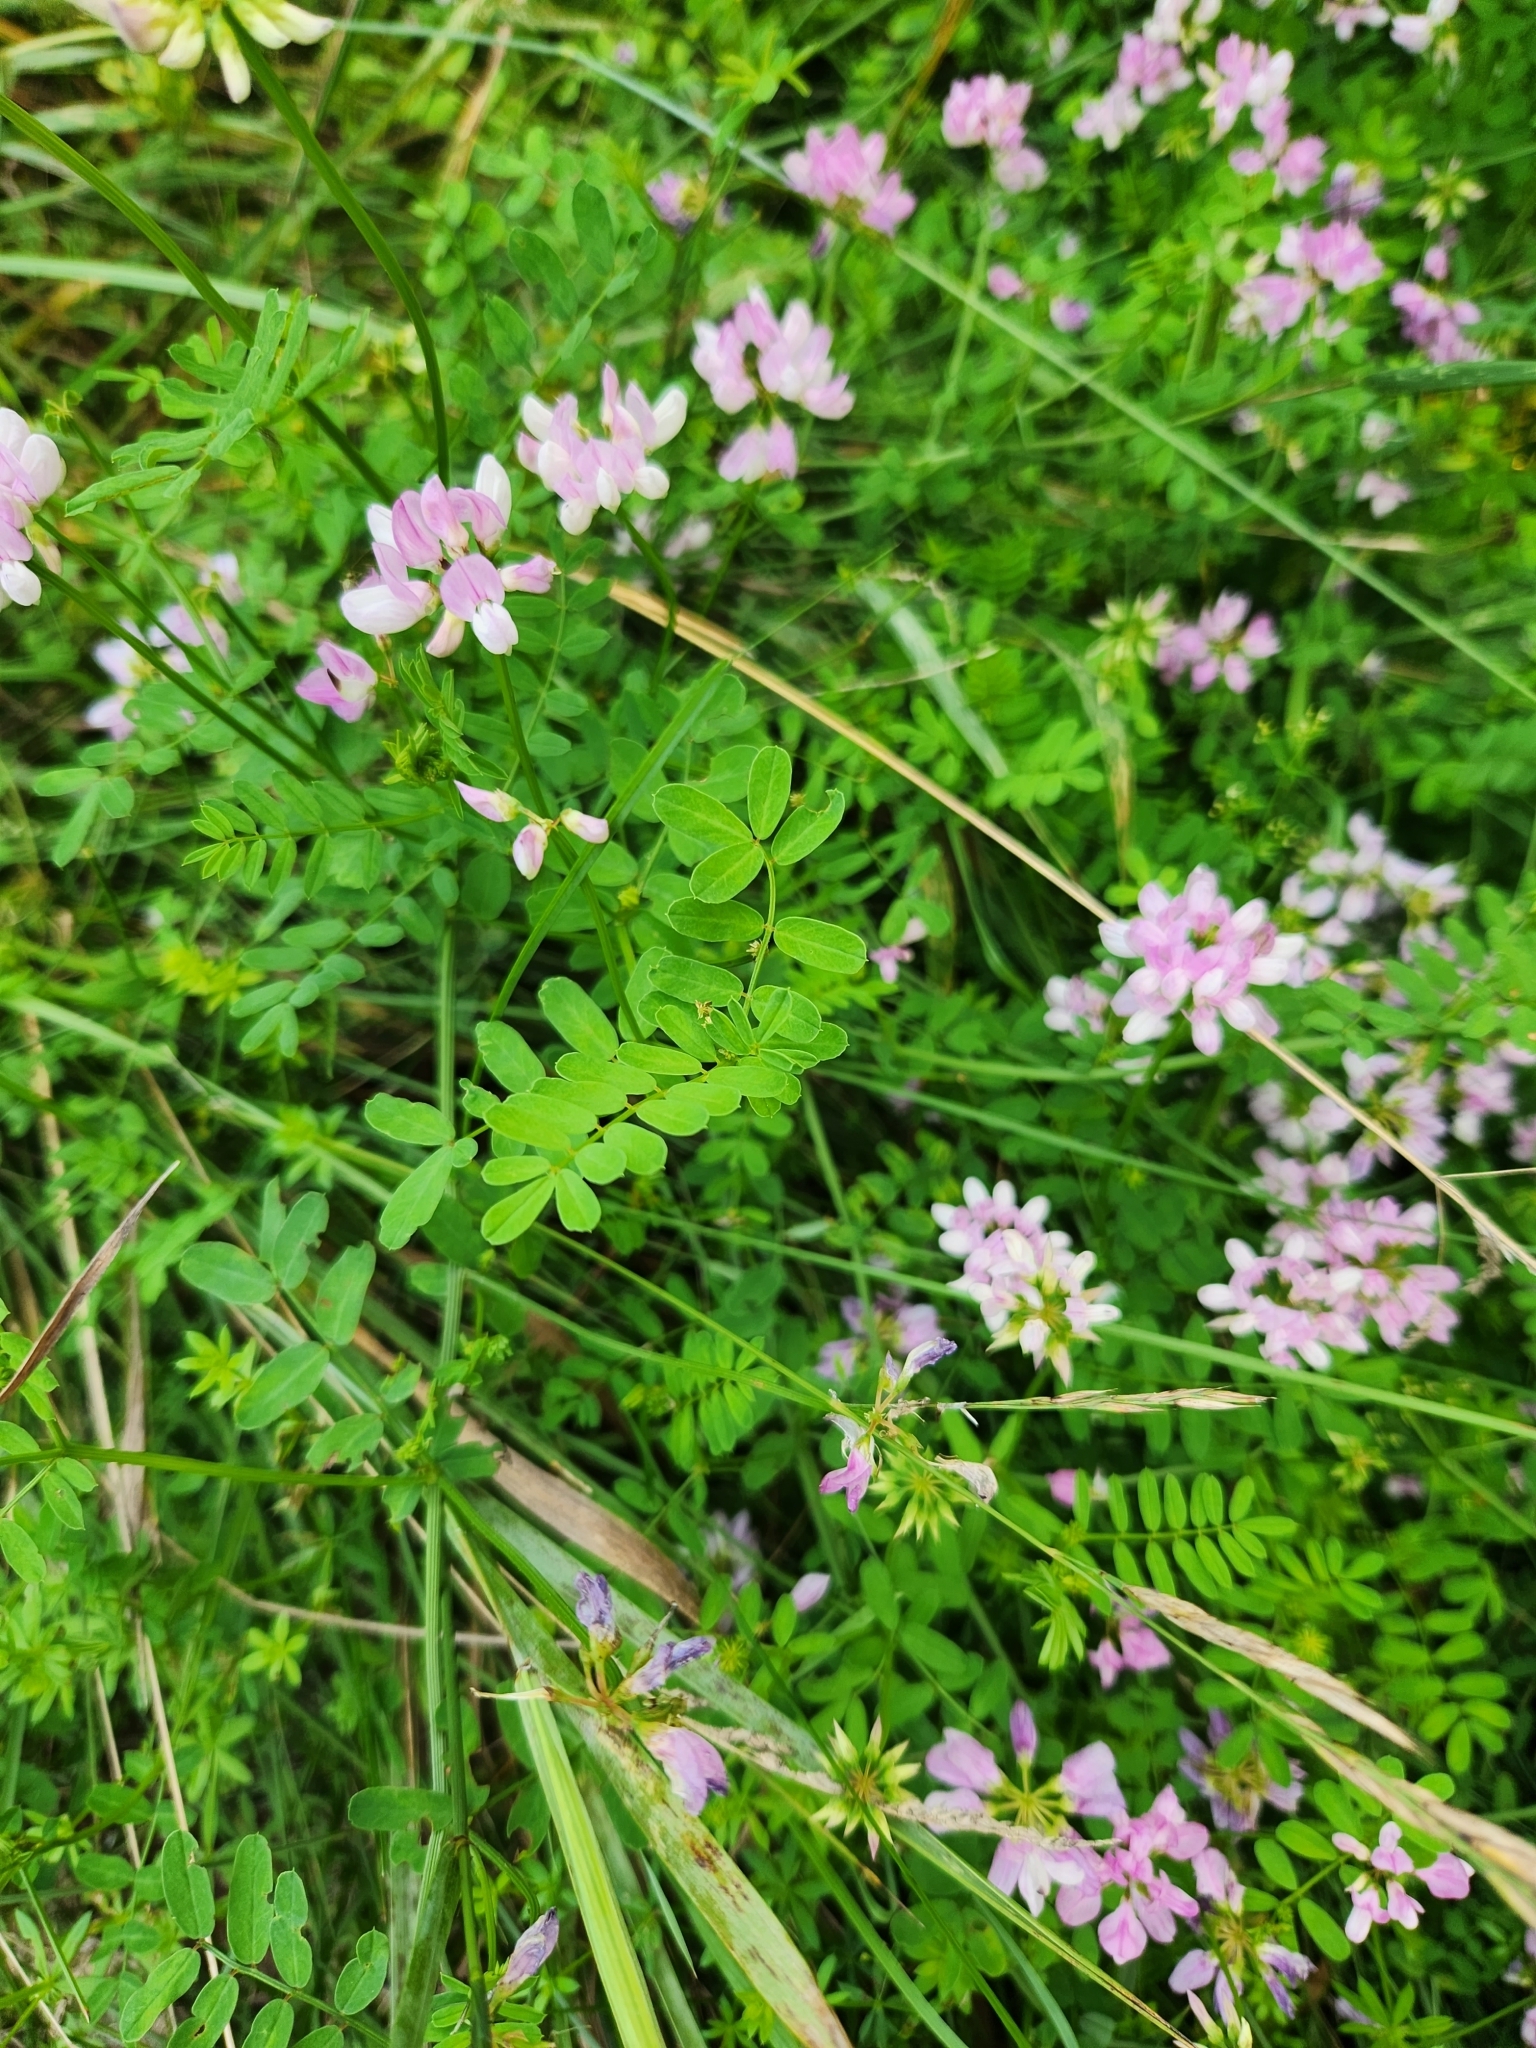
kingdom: Plantae
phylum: Tracheophyta
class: Magnoliopsida
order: Fabales
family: Fabaceae
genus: Coronilla
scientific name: Coronilla varia
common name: Crownvetch
